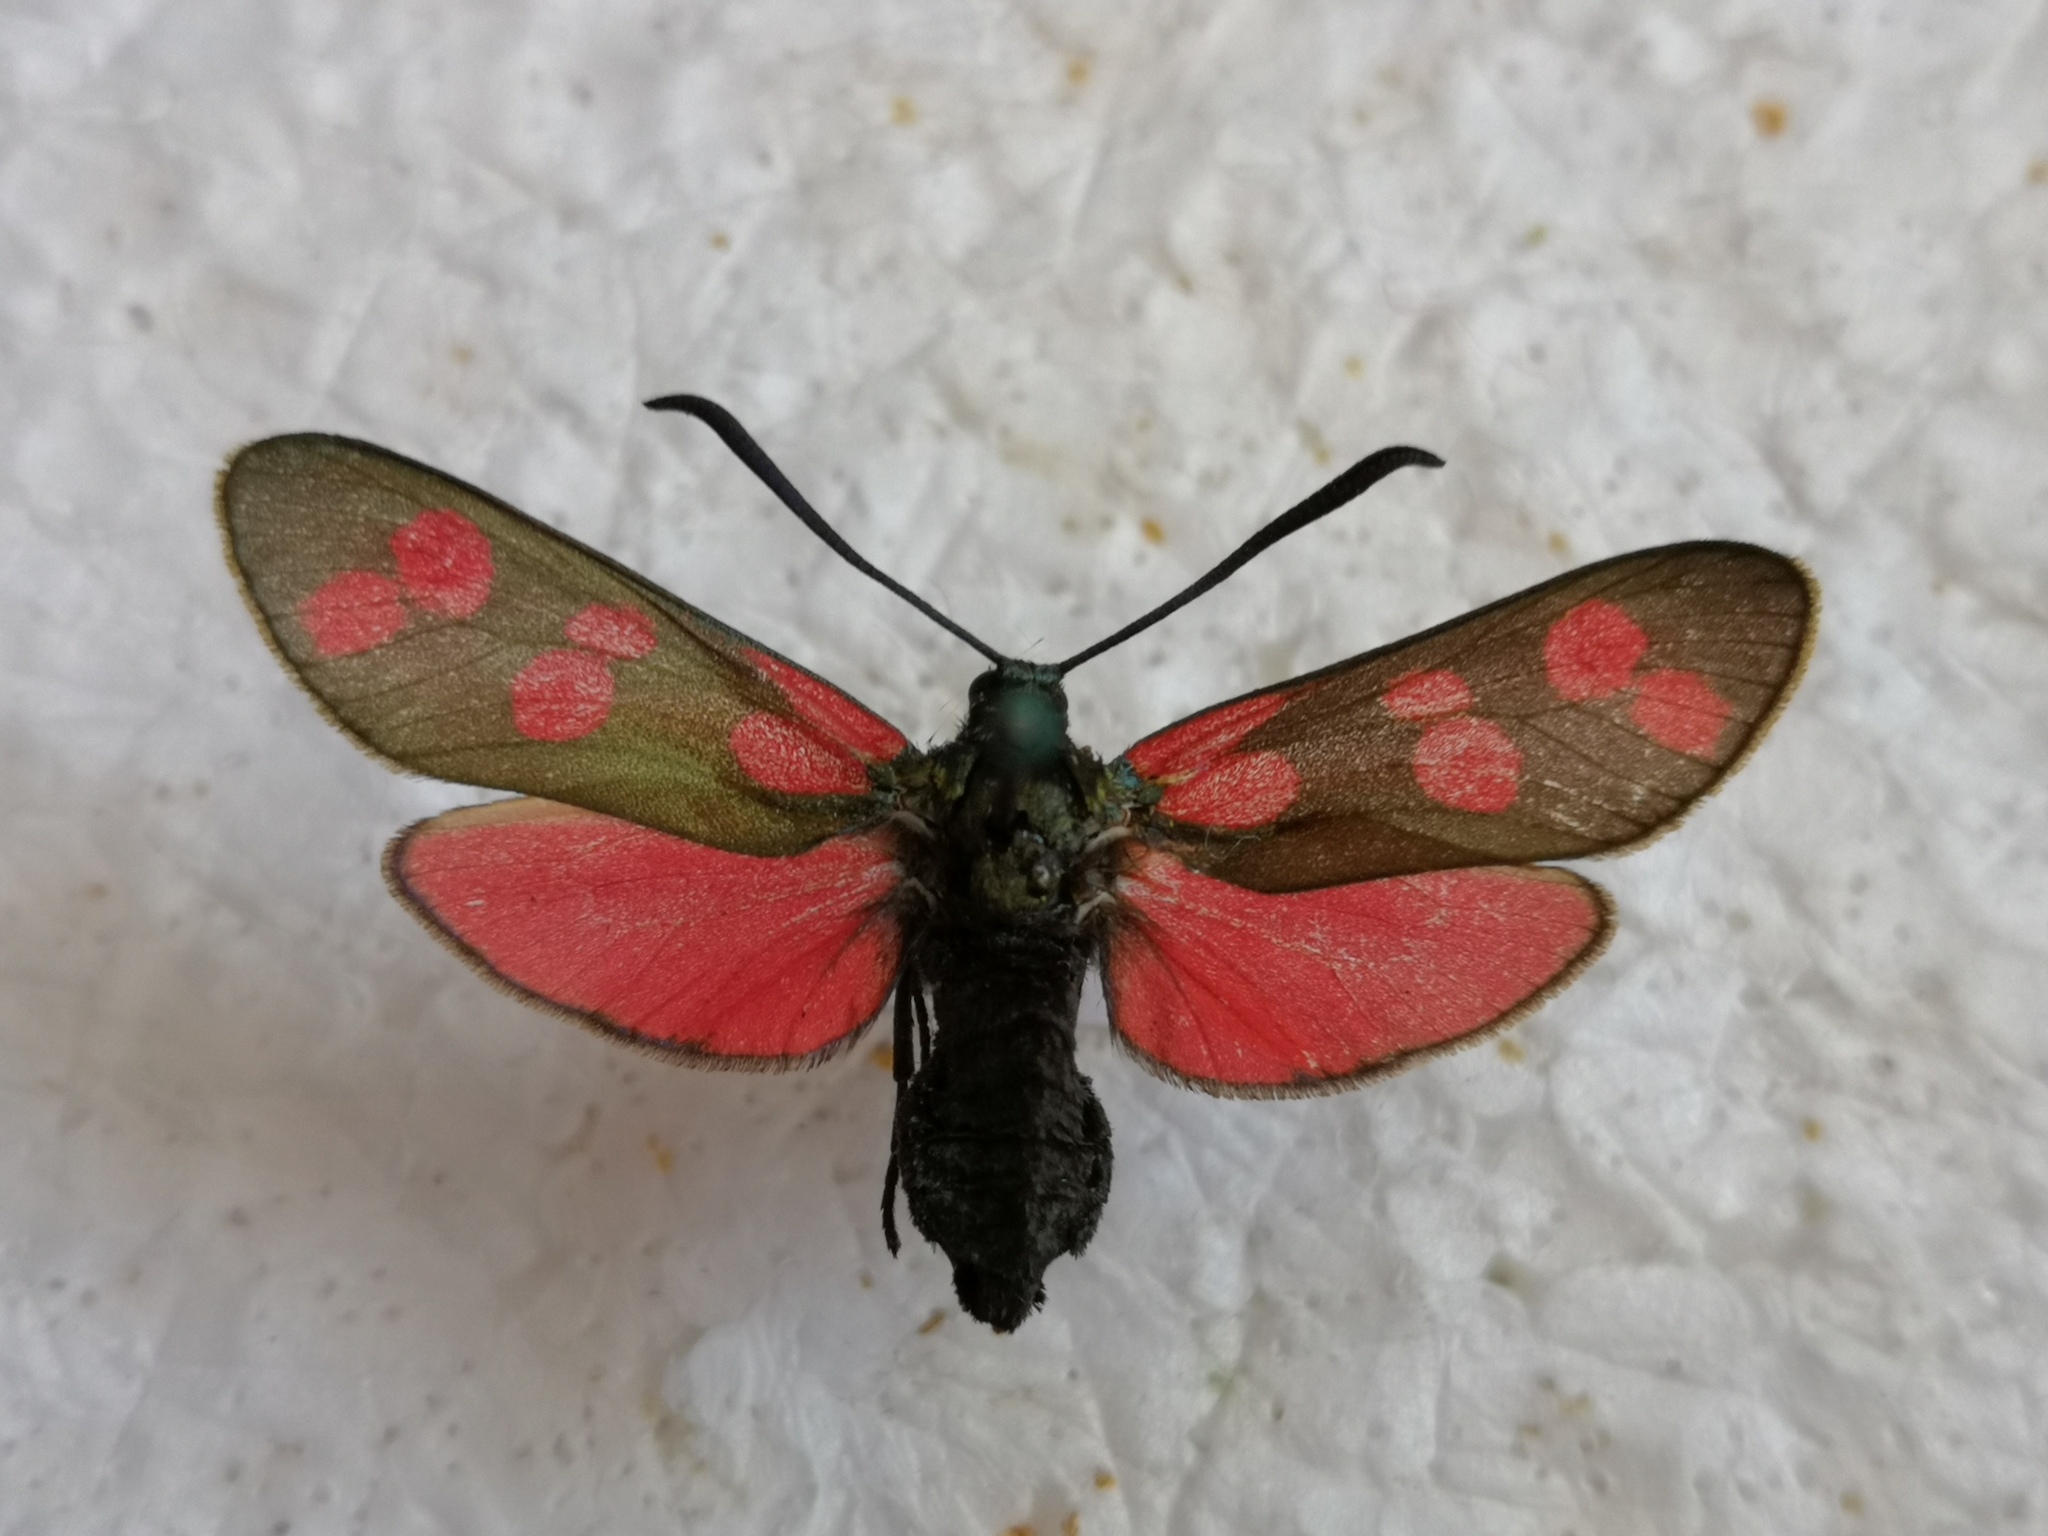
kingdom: Animalia
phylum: Arthropoda
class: Insecta
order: Lepidoptera
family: Zygaenidae
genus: Zygaena
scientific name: Zygaena filipendulae
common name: Six-spot burnet
